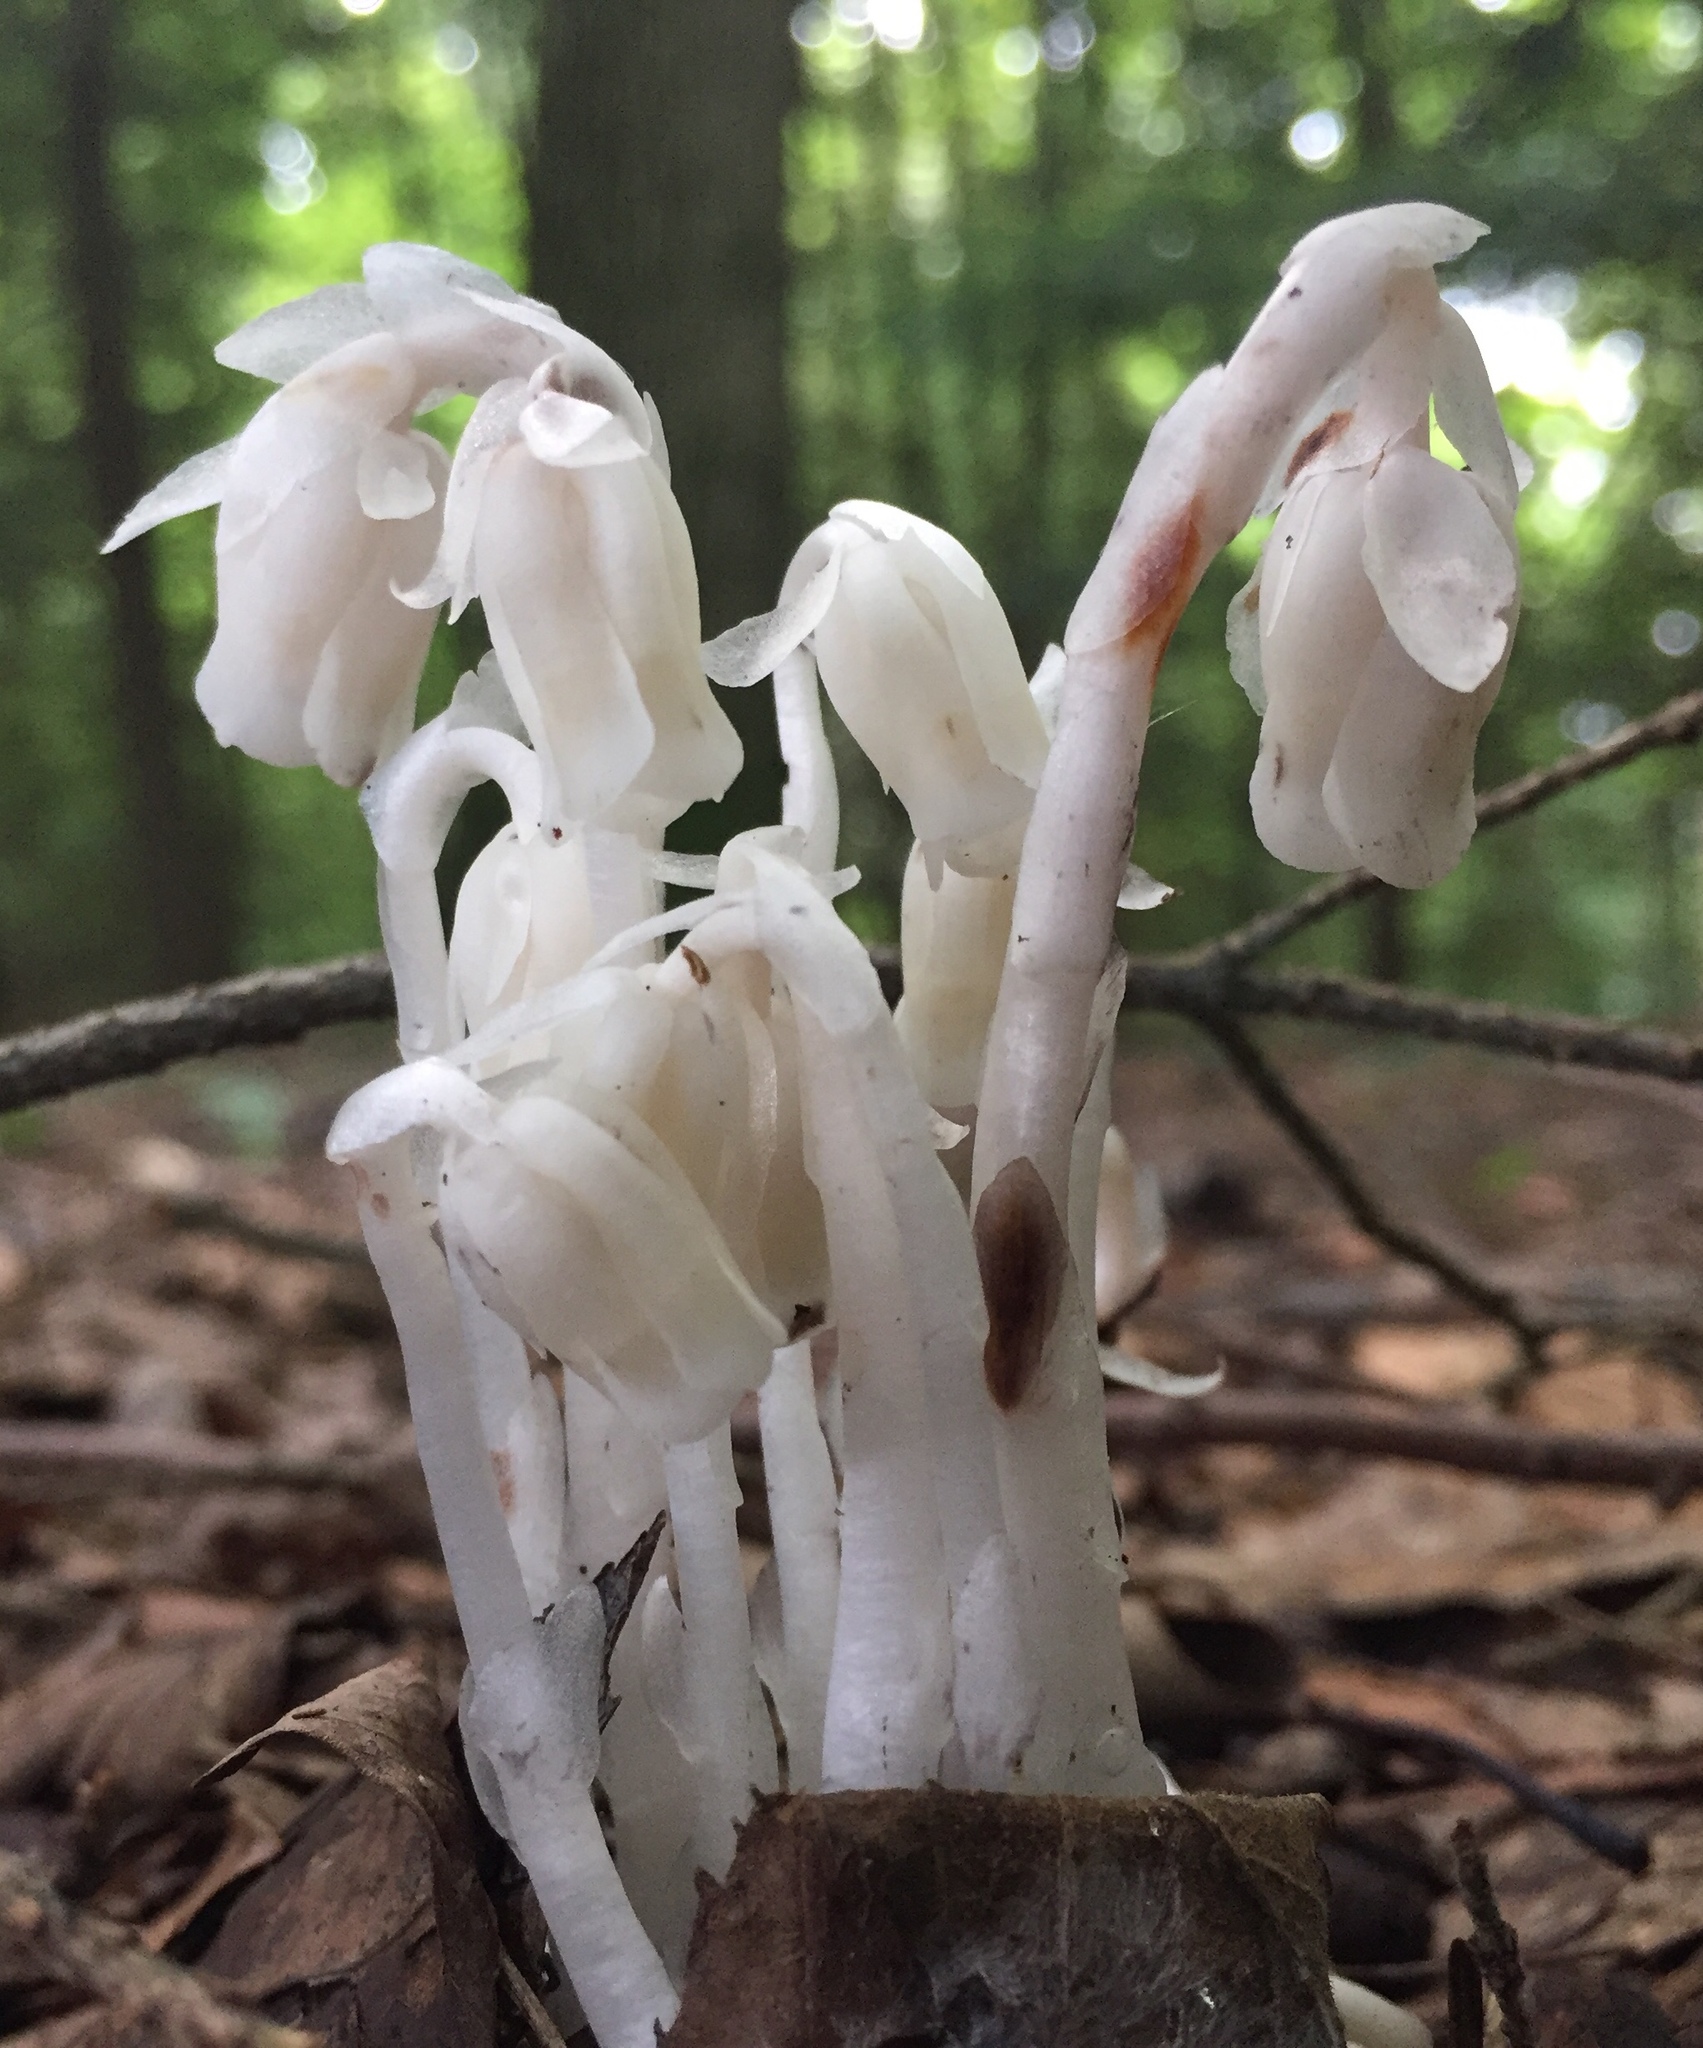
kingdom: Plantae
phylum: Tracheophyta
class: Magnoliopsida
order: Ericales
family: Ericaceae
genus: Monotropa
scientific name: Monotropa uniflora
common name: Convulsion root
